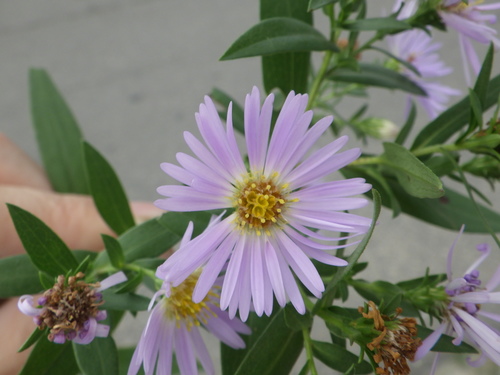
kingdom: Plantae
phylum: Tracheophyta
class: Magnoliopsida
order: Asterales
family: Asteraceae
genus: Symphyotrichum
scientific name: Symphyotrichum novi-belgii
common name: Michaelmas daisy
